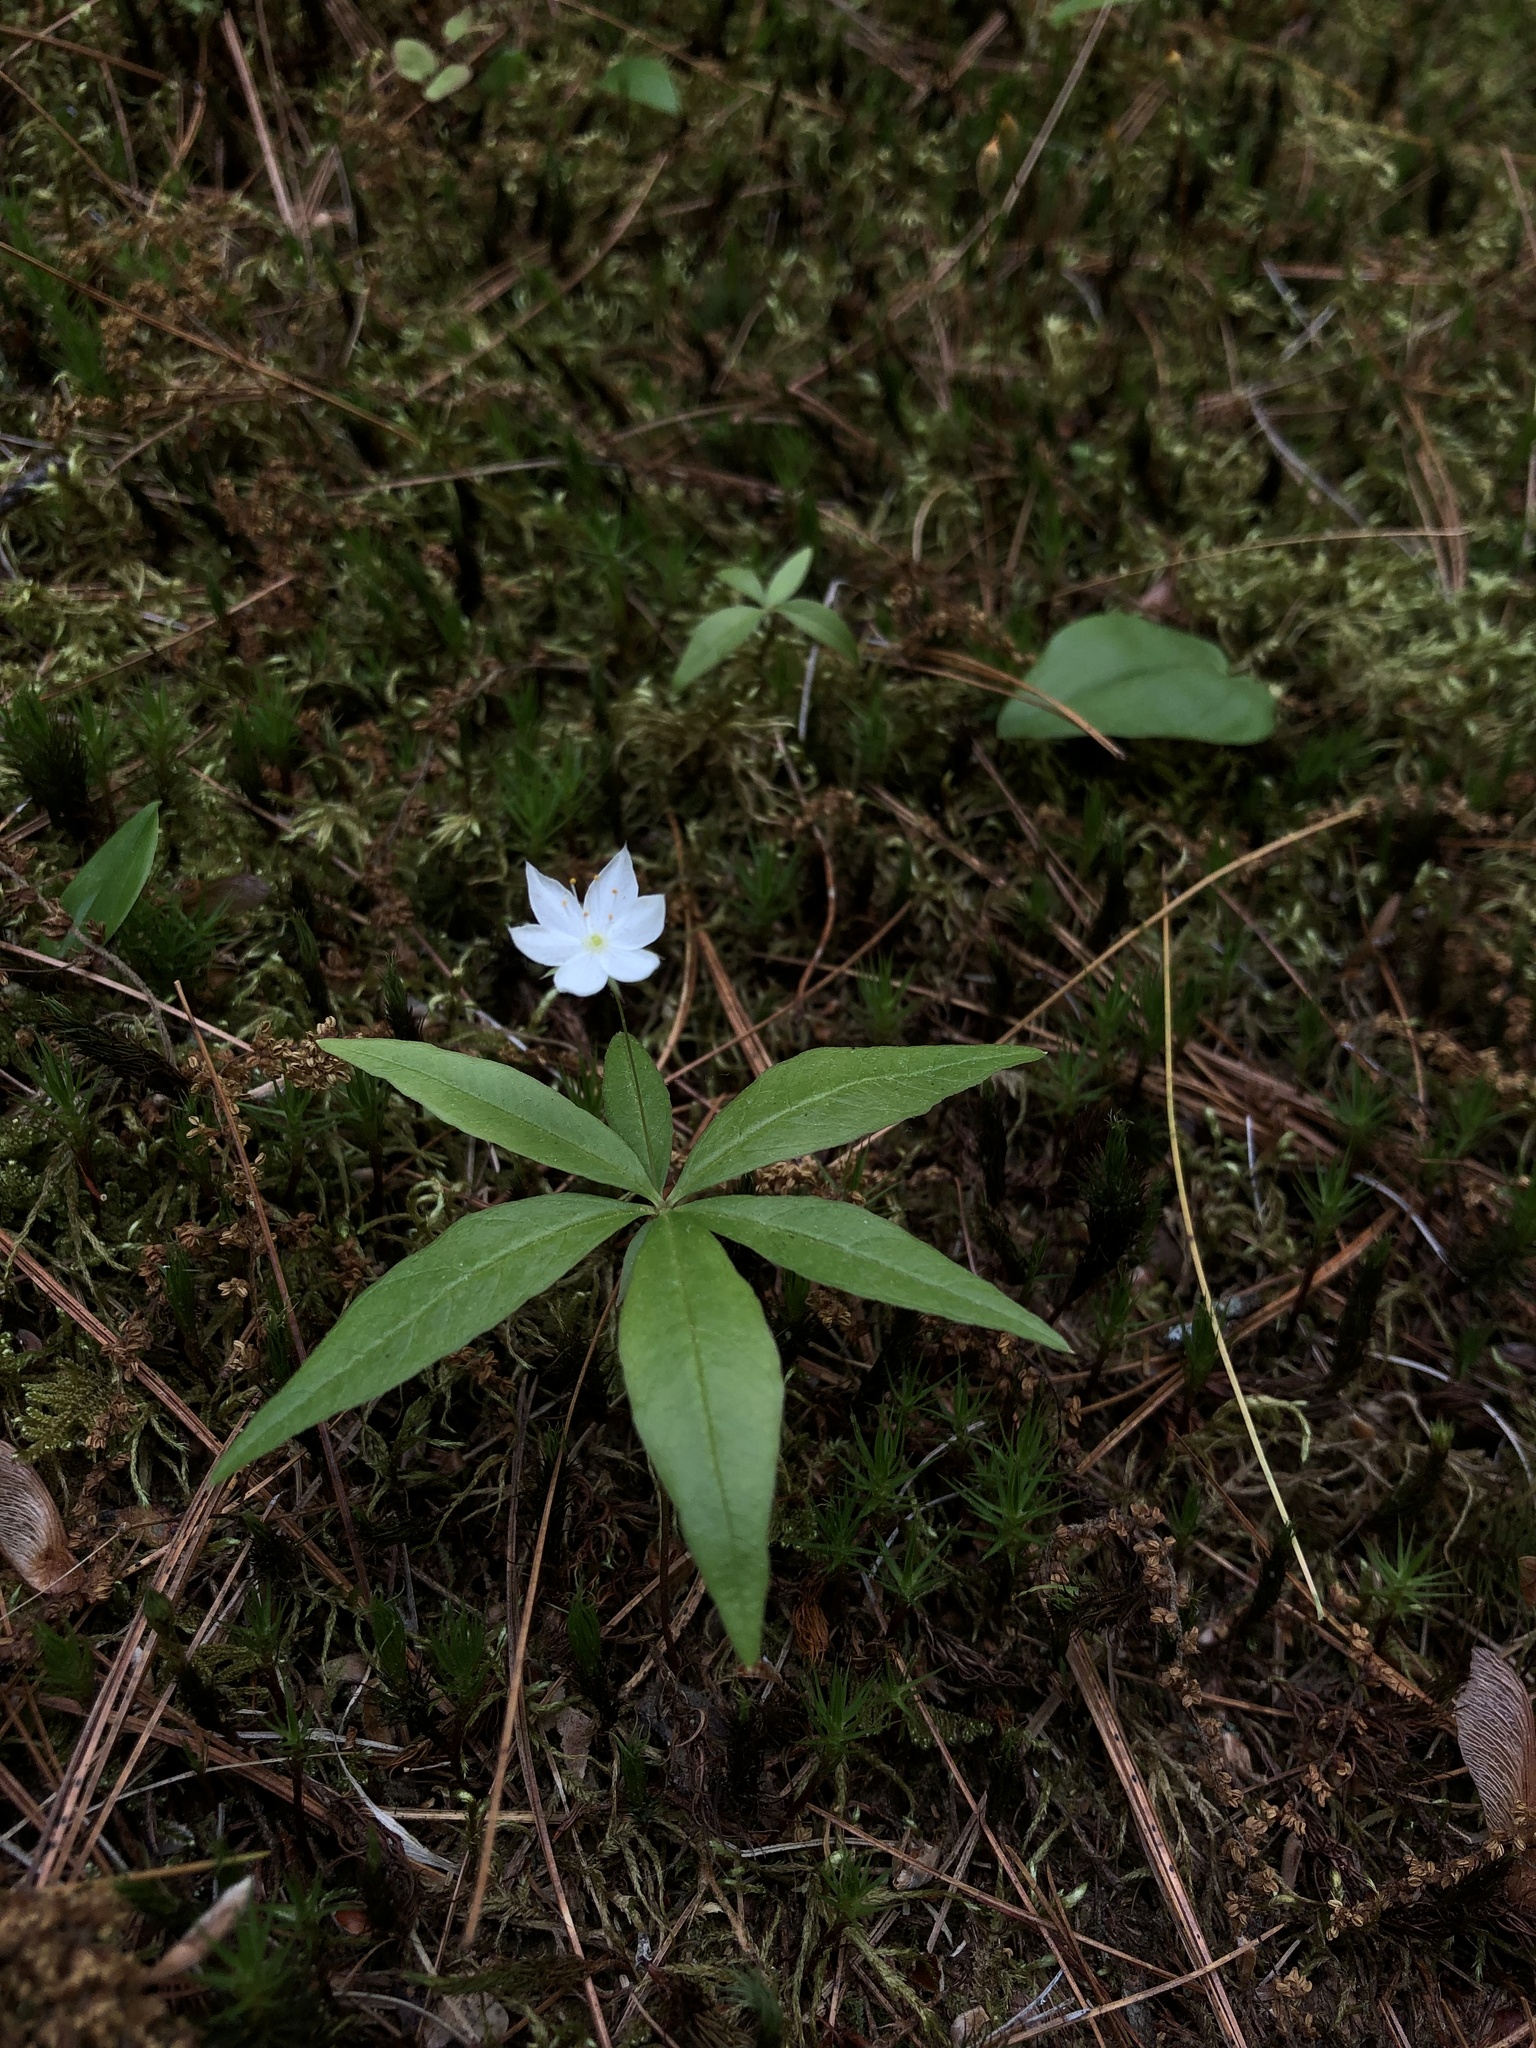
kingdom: Plantae
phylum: Tracheophyta
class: Magnoliopsida
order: Ericales
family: Primulaceae
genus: Lysimachia
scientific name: Lysimachia borealis
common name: American starflower
